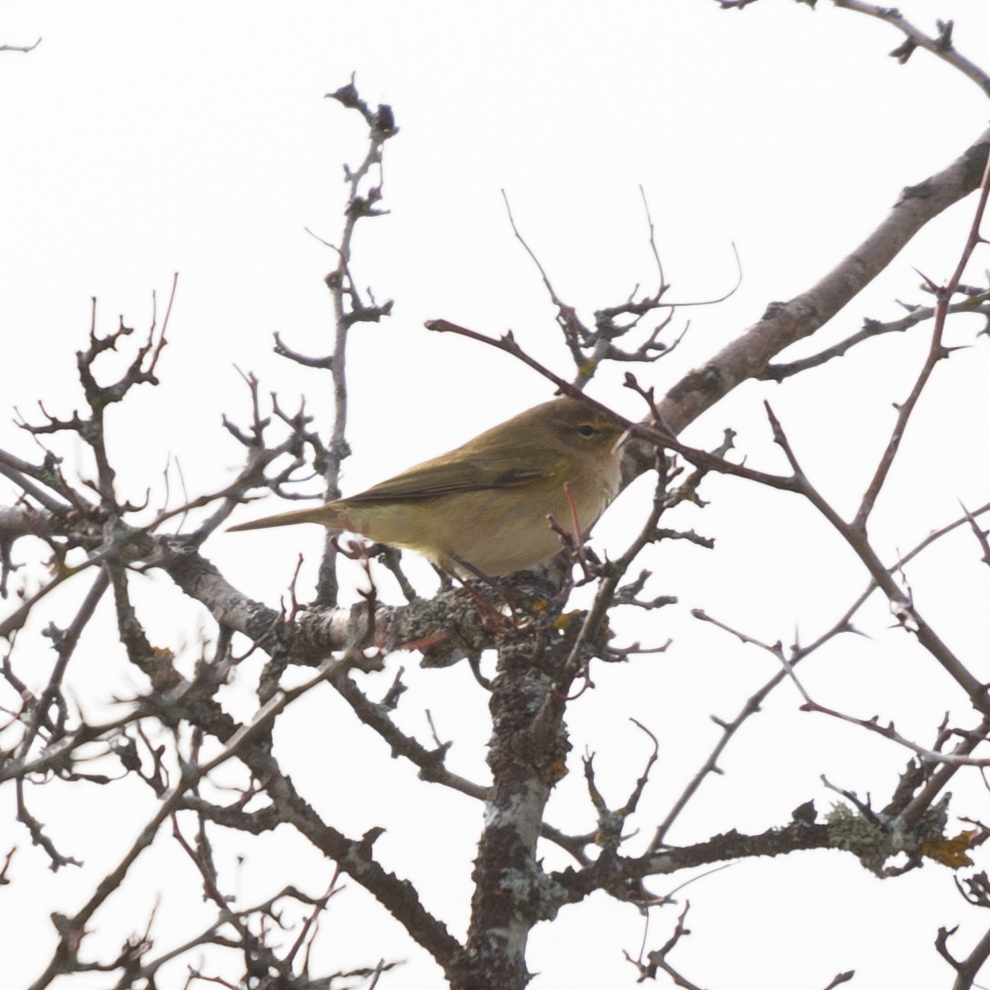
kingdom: Animalia
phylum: Chordata
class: Aves
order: Passeriformes
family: Phylloscopidae
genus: Phylloscopus
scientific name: Phylloscopus collybita
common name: Common chiffchaff
